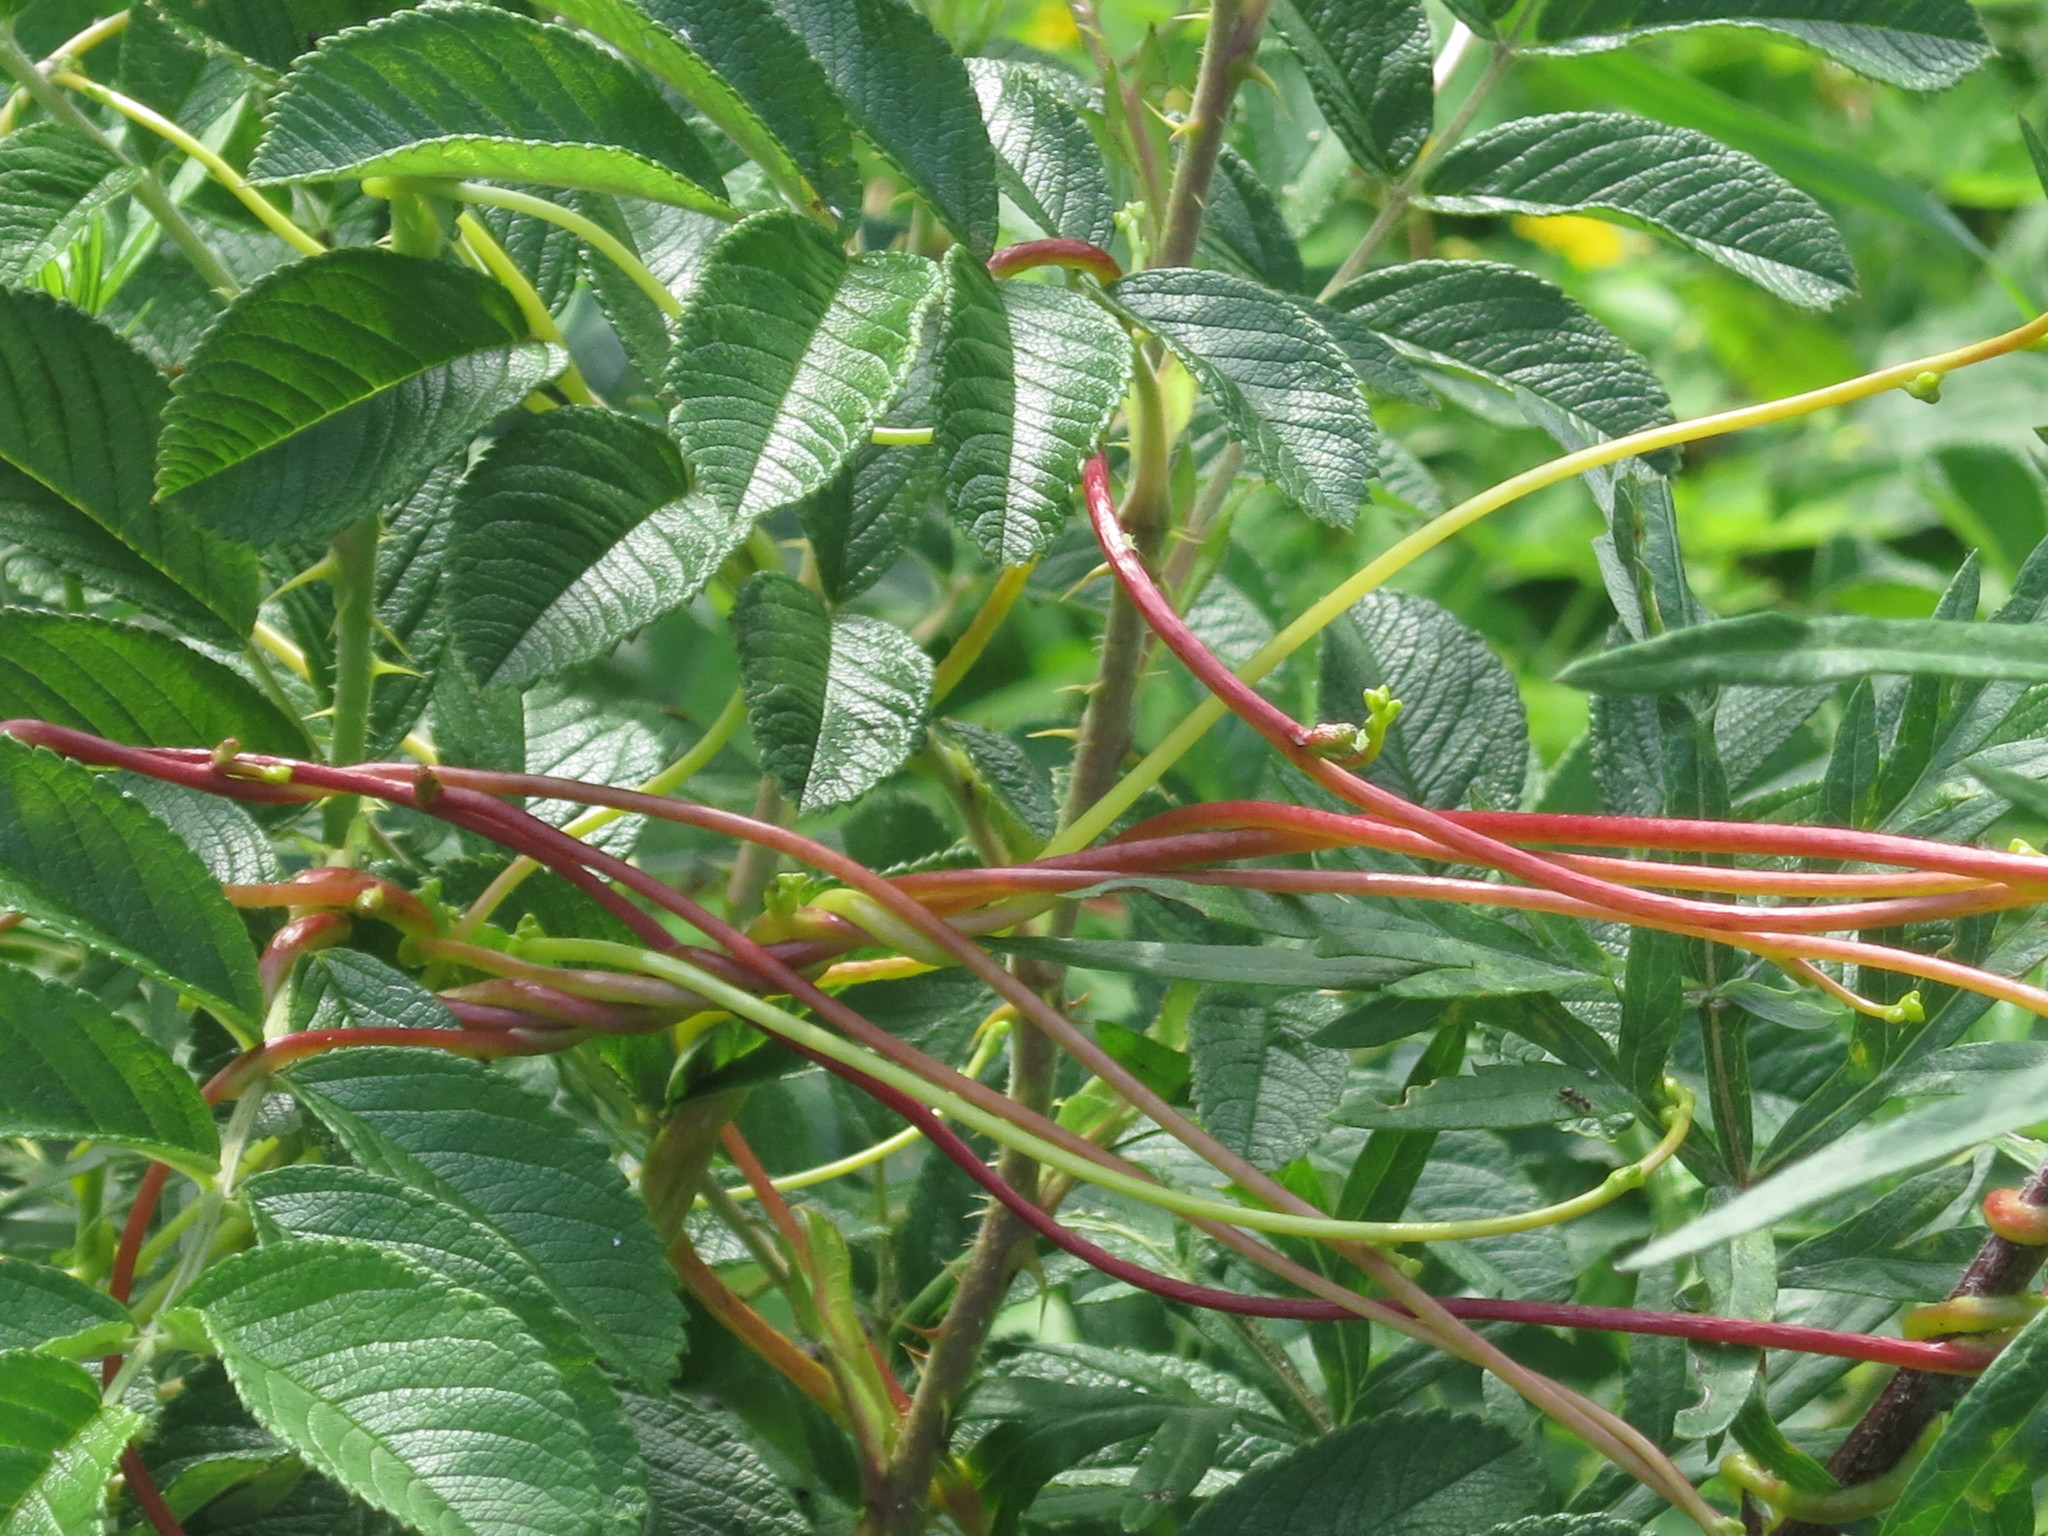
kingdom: Plantae
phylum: Tracheophyta
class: Magnoliopsida
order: Solanales
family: Convolvulaceae
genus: Cuscuta
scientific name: Cuscuta japonica
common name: Japanese dodder
